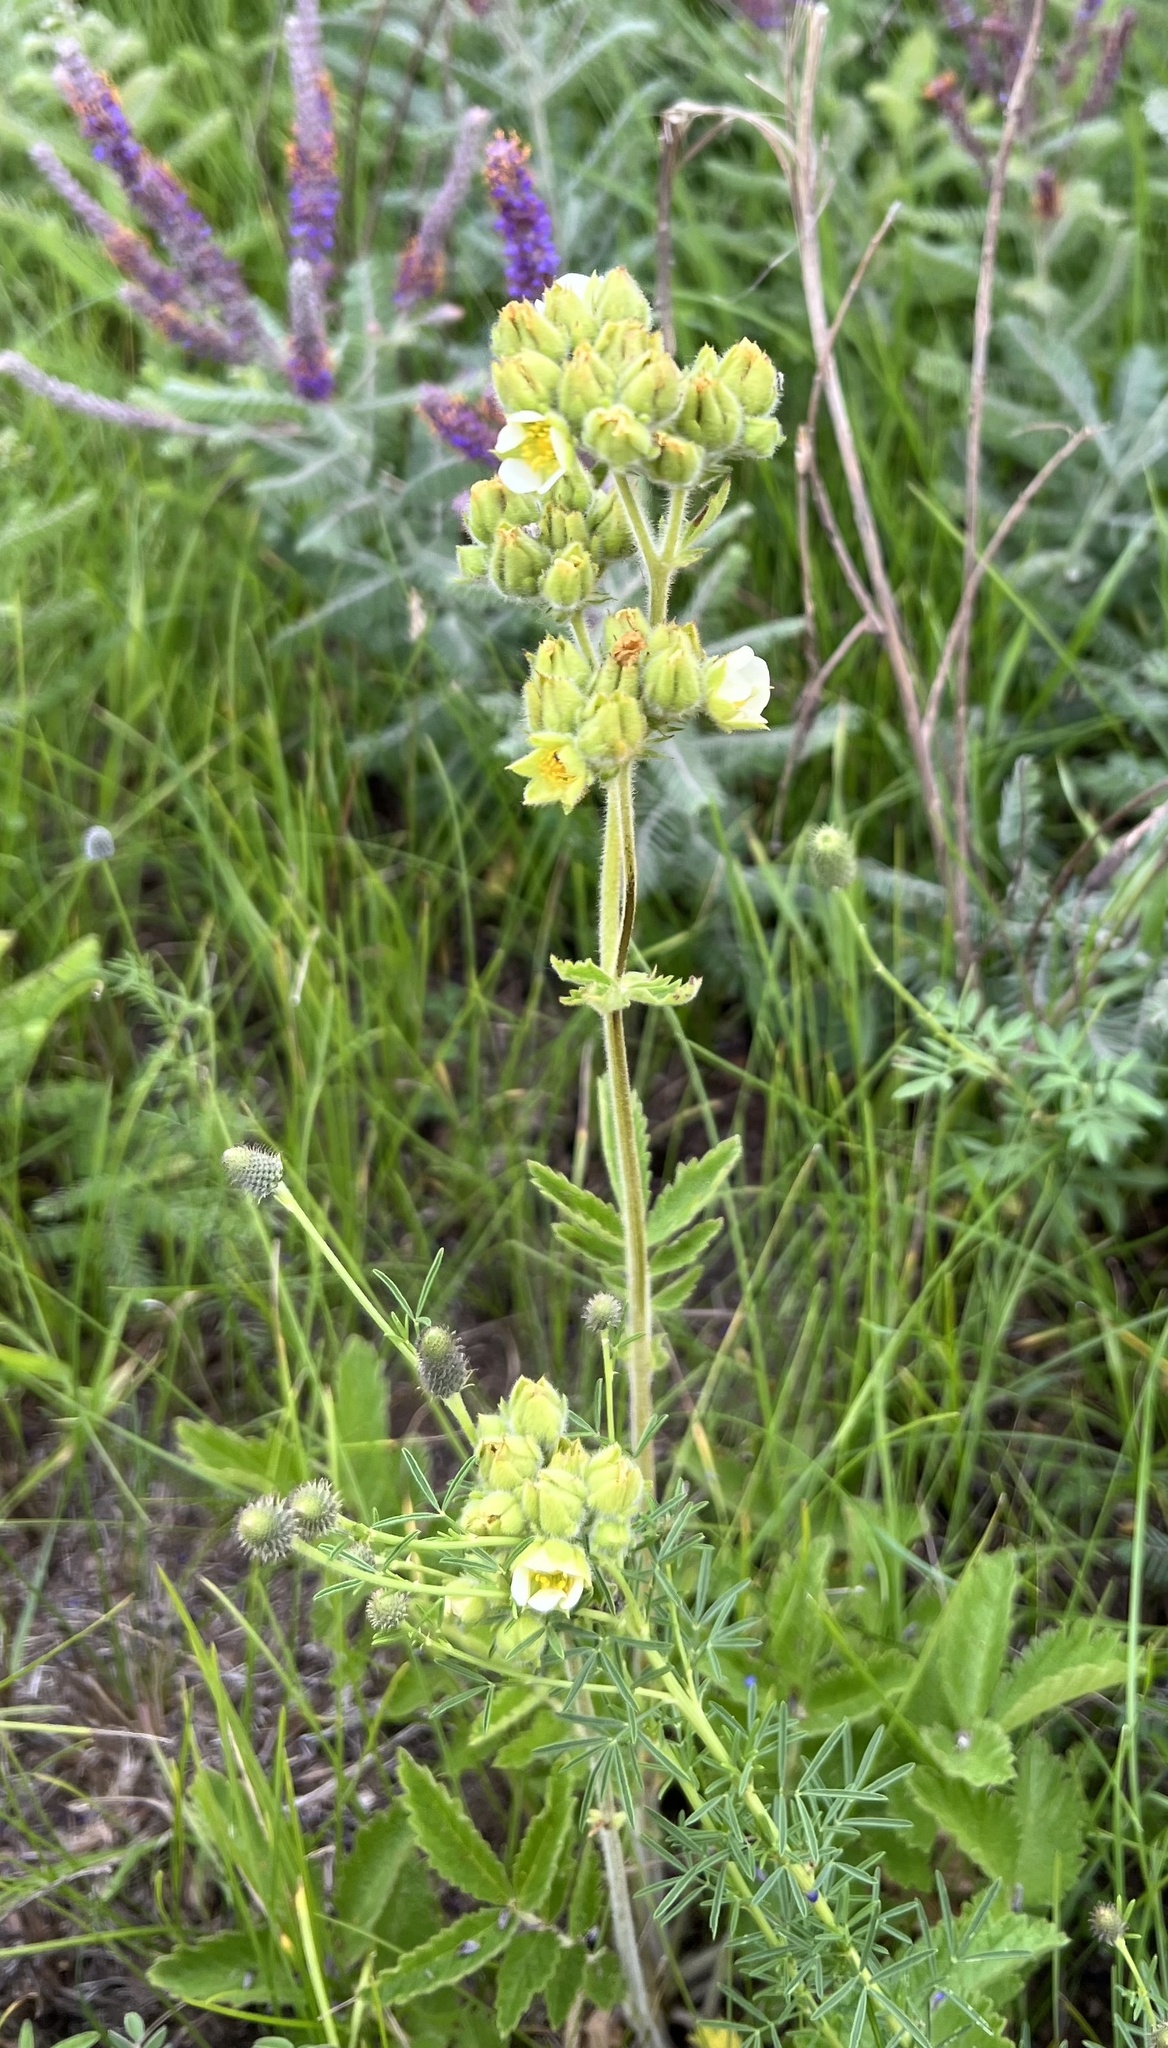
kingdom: Plantae
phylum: Tracheophyta
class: Magnoliopsida
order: Rosales
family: Rosaceae
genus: Drymocallis
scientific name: Drymocallis arguta
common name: Tall cinquefoil
